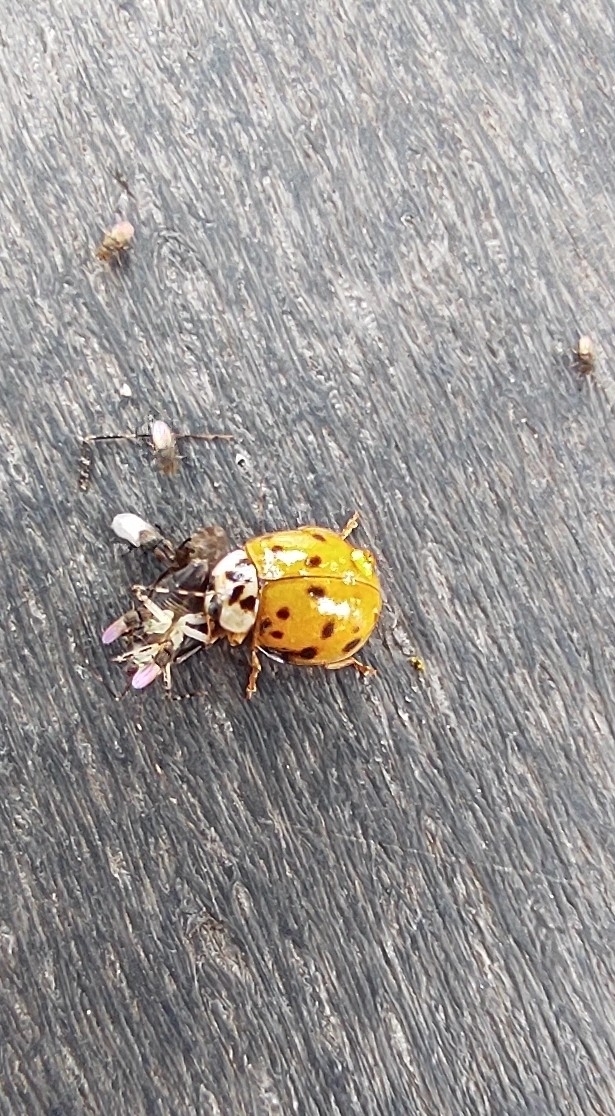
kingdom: Animalia
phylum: Arthropoda
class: Insecta
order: Coleoptera
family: Coccinellidae
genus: Harmonia
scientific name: Harmonia axyridis
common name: Harlequin ladybird
